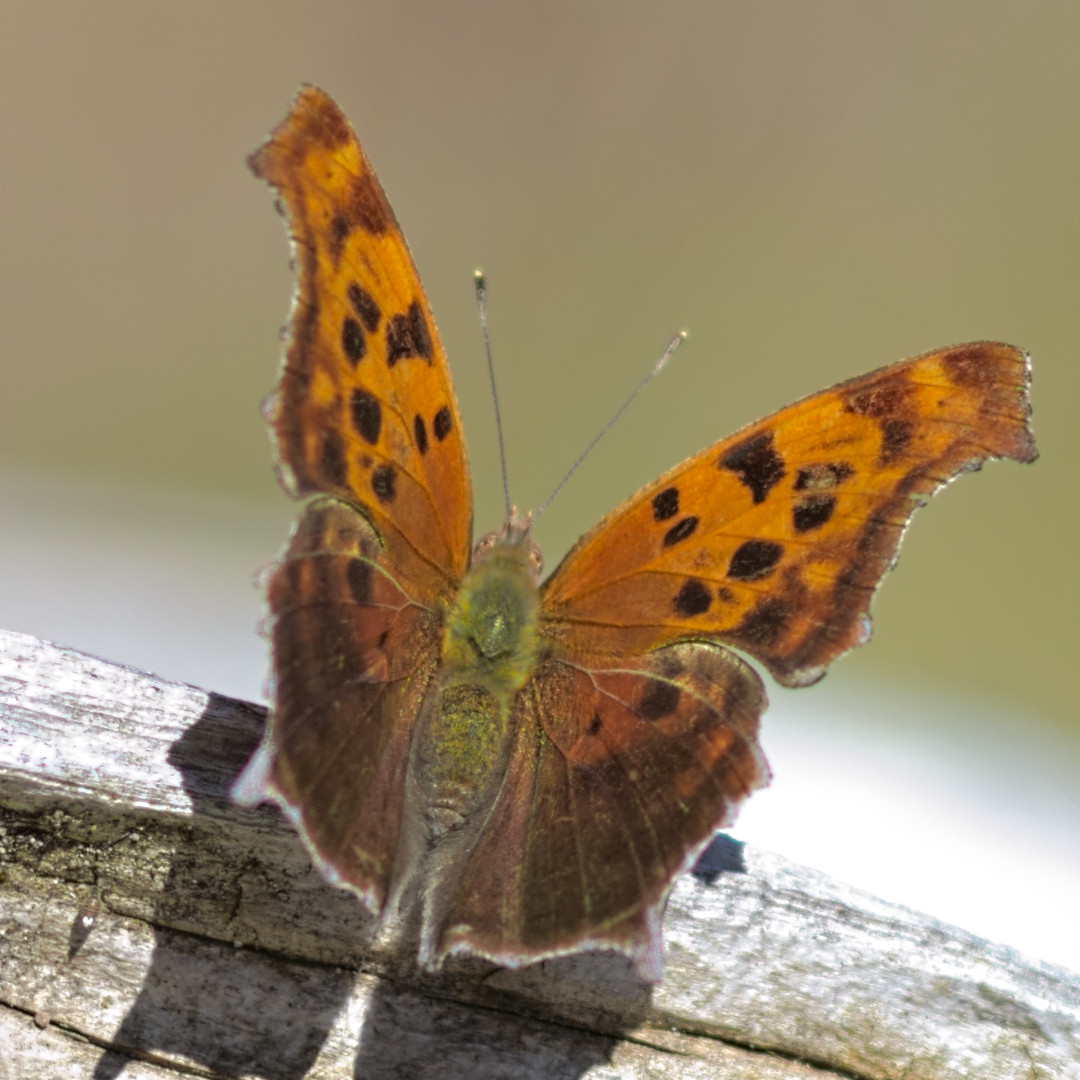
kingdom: Animalia
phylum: Arthropoda
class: Insecta
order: Lepidoptera
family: Nymphalidae
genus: Polygonia
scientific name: Polygonia interrogationis
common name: Question mark
